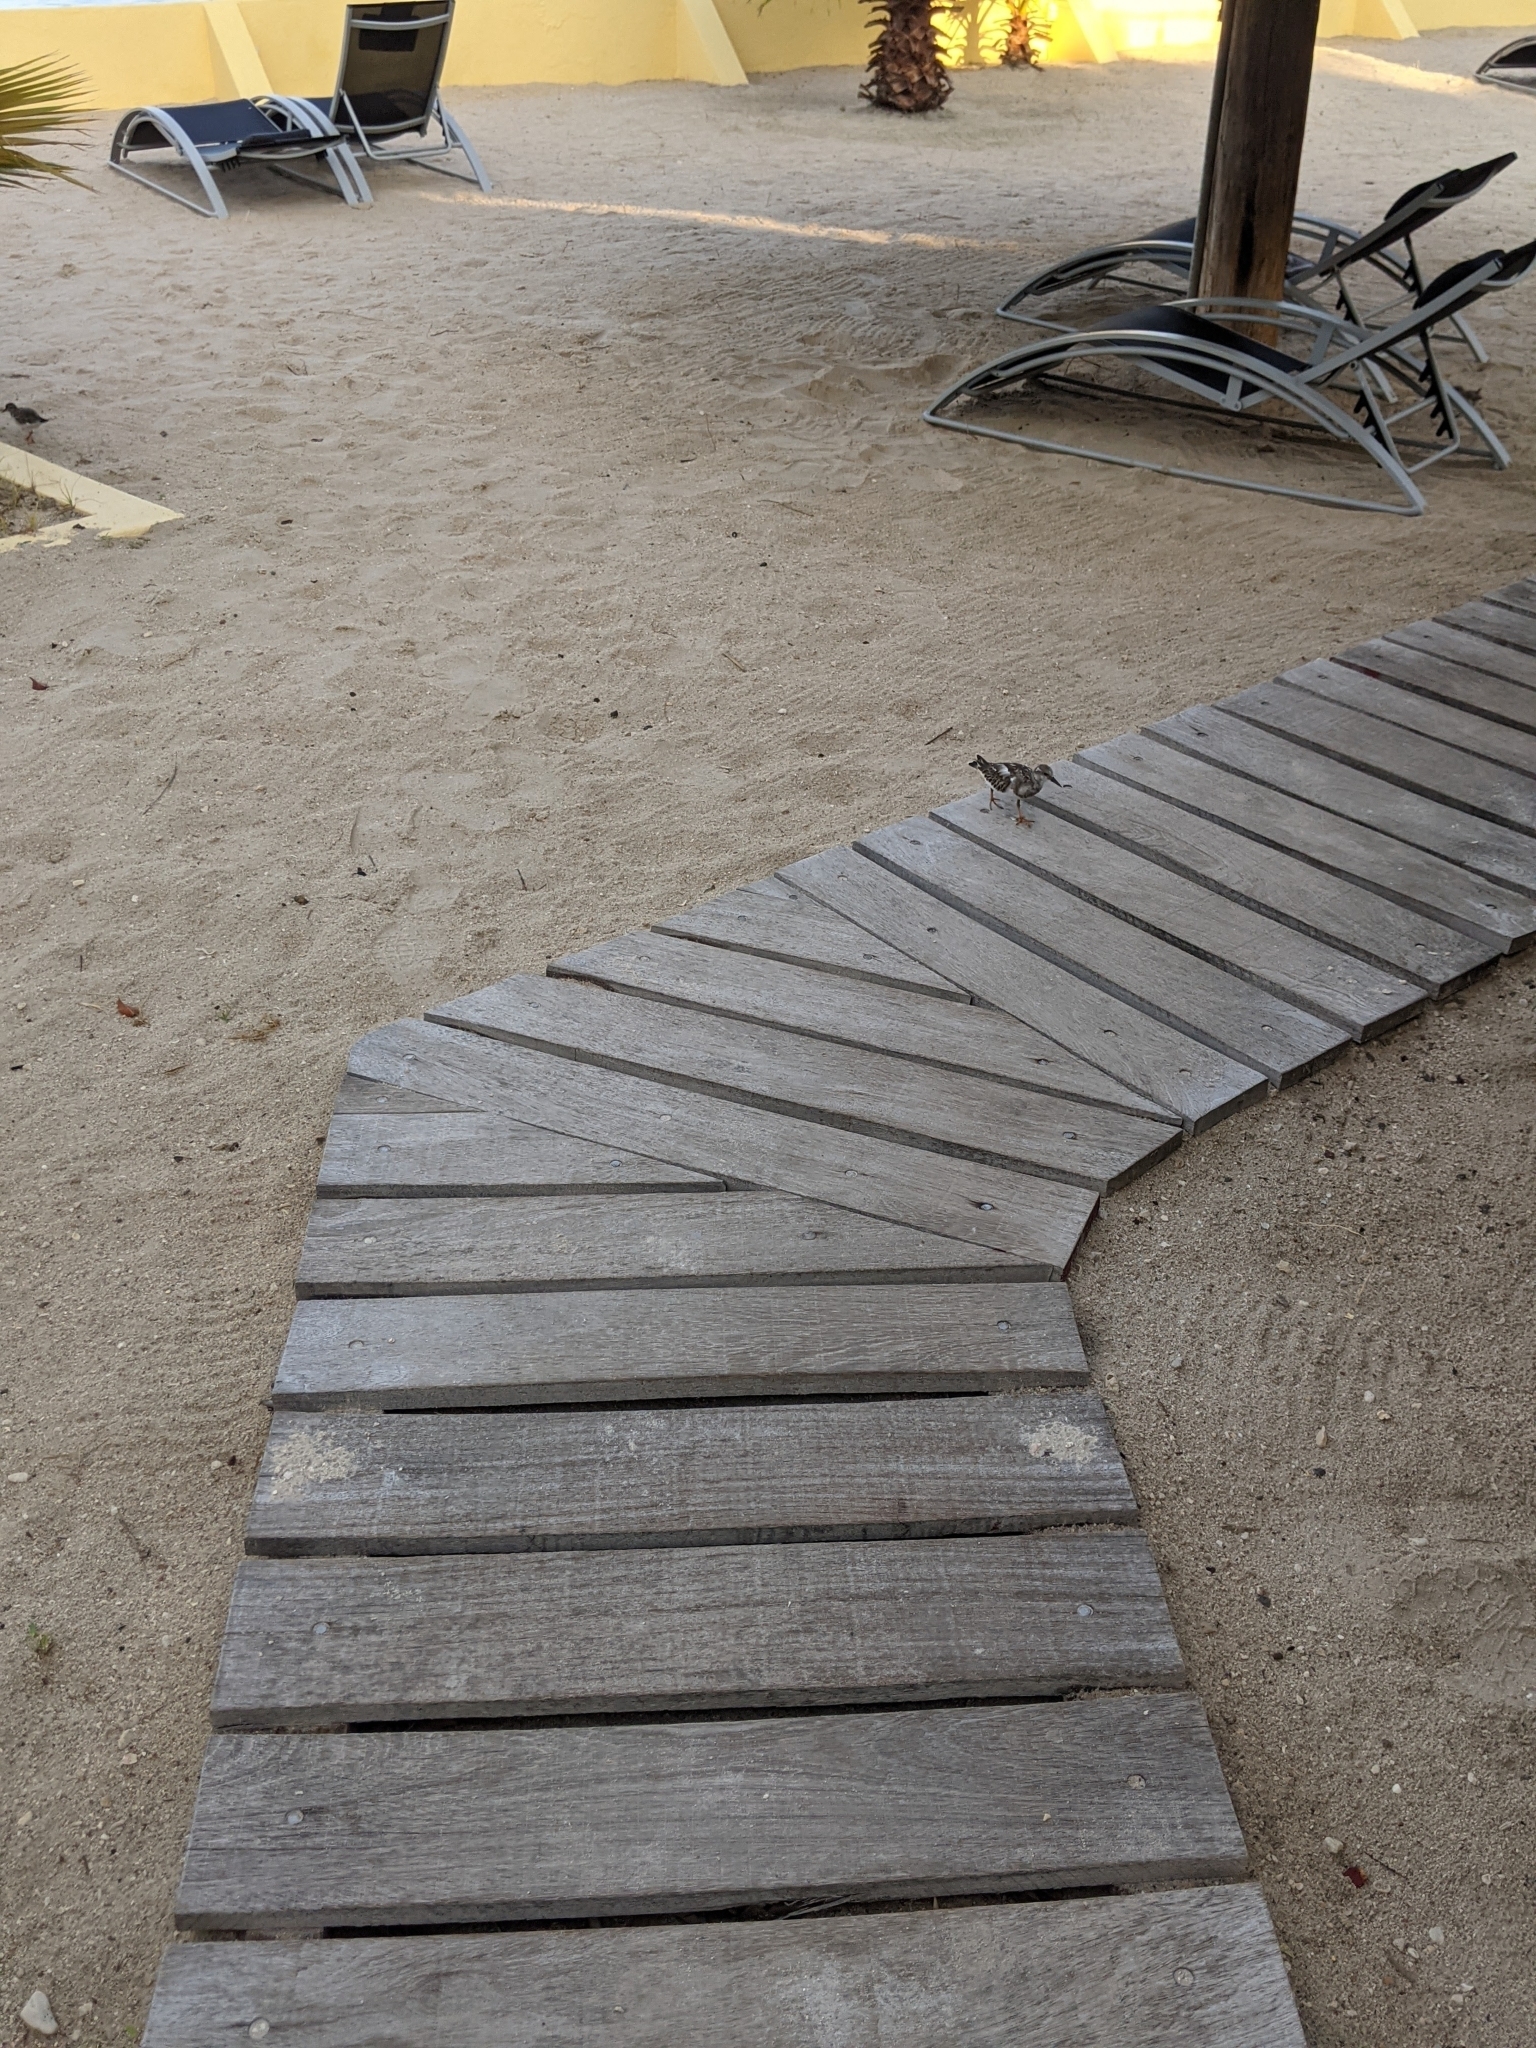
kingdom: Animalia
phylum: Chordata
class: Aves
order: Charadriiformes
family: Scolopacidae
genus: Arenaria
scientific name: Arenaria interpres
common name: Ruddy turnstone
